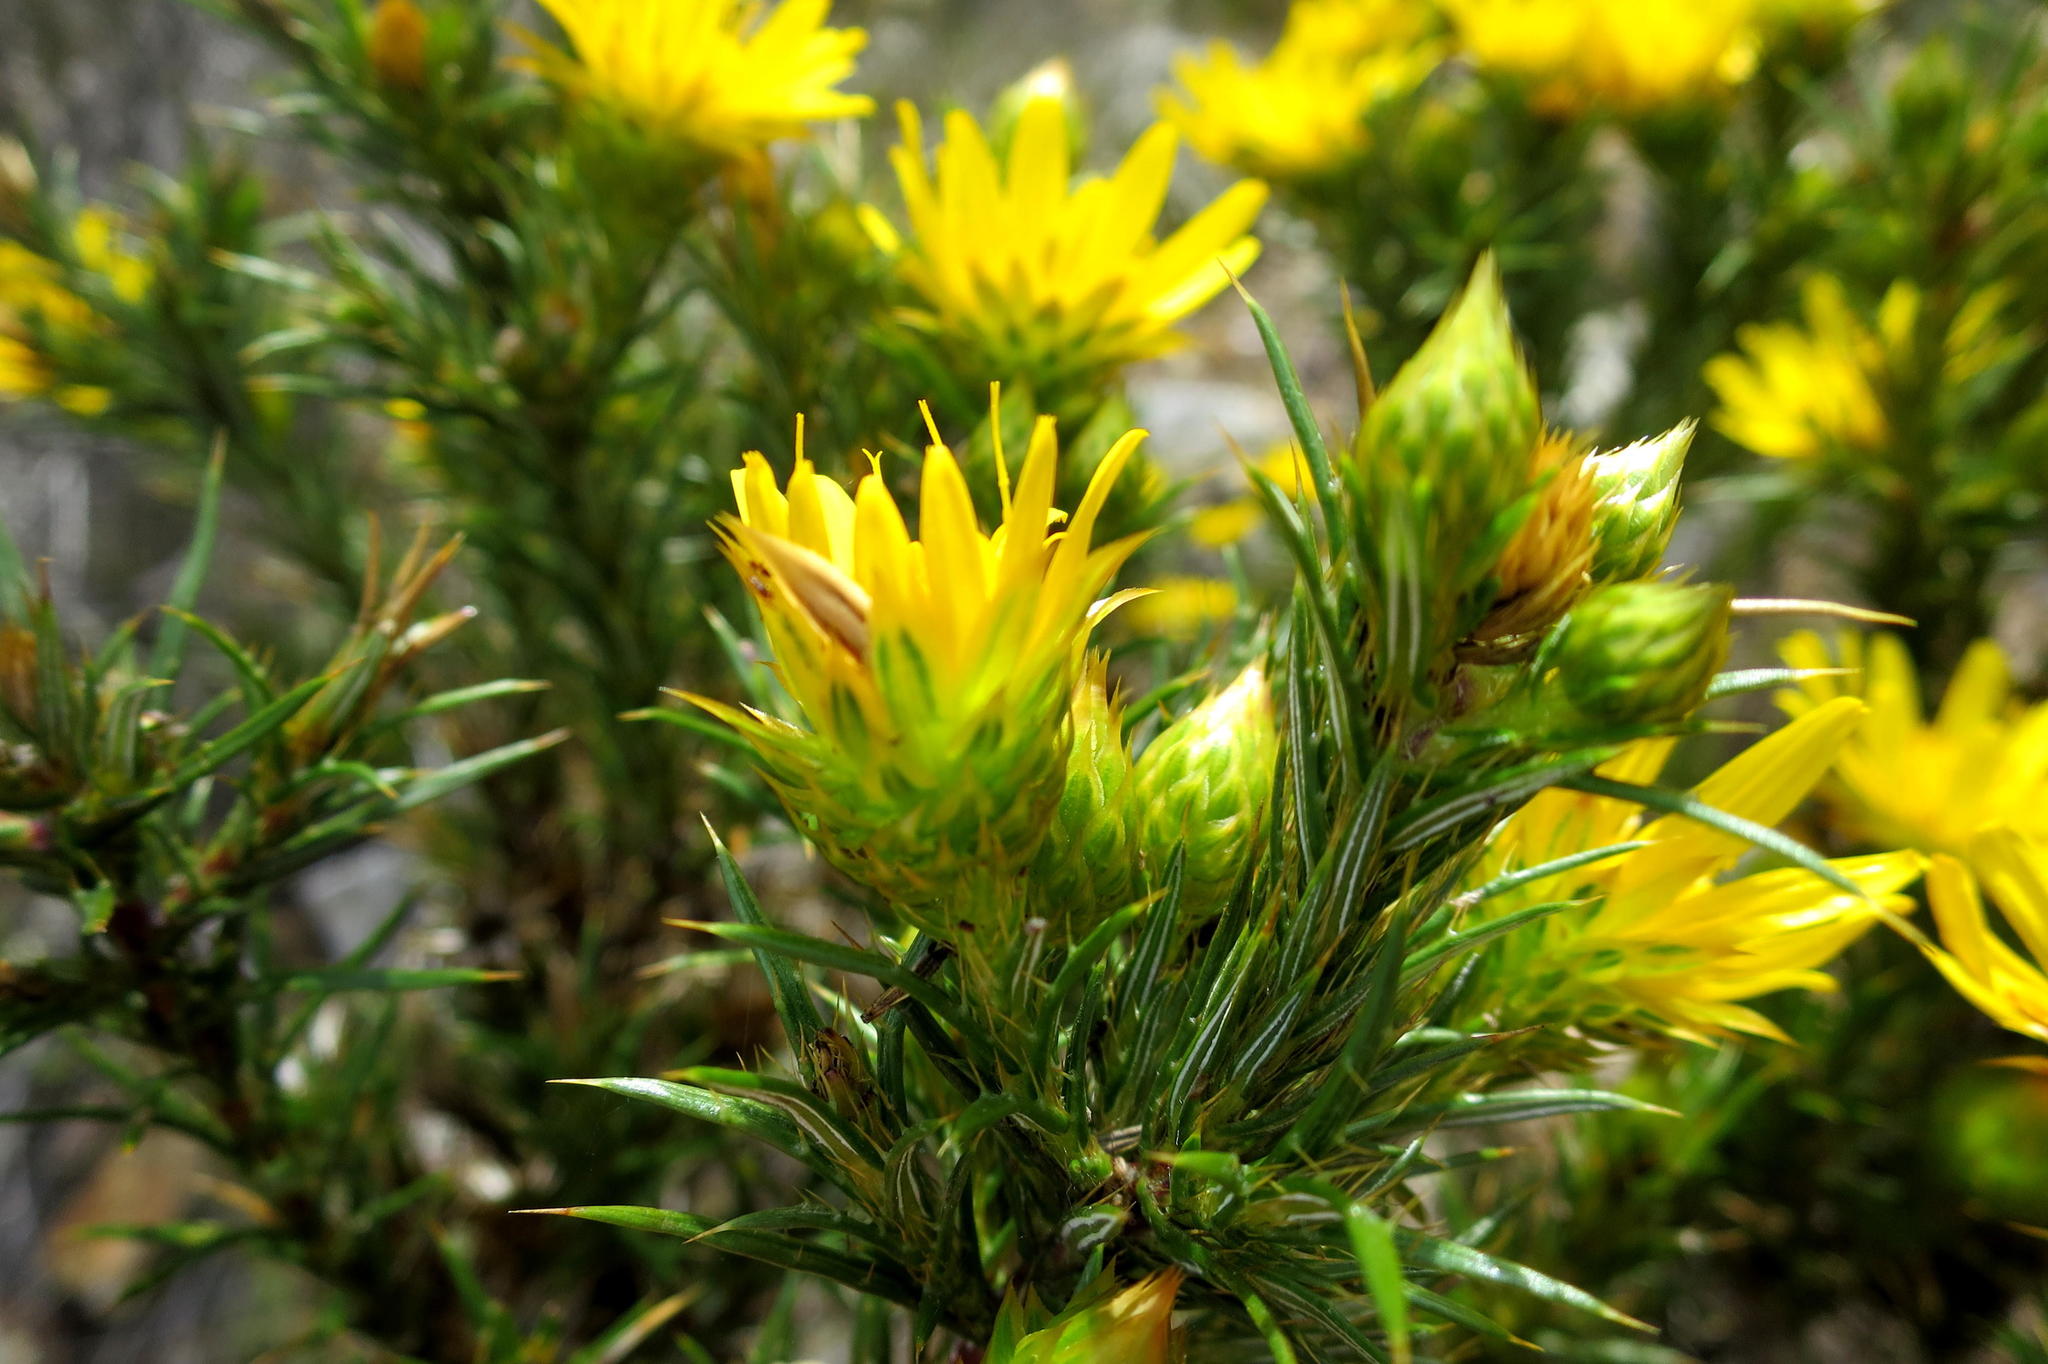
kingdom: Plantae
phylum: Tracheophyta
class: Magnoliopsida
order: Asterales
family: Asteraceae
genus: Cullumia
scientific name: Cullumia bisulca
